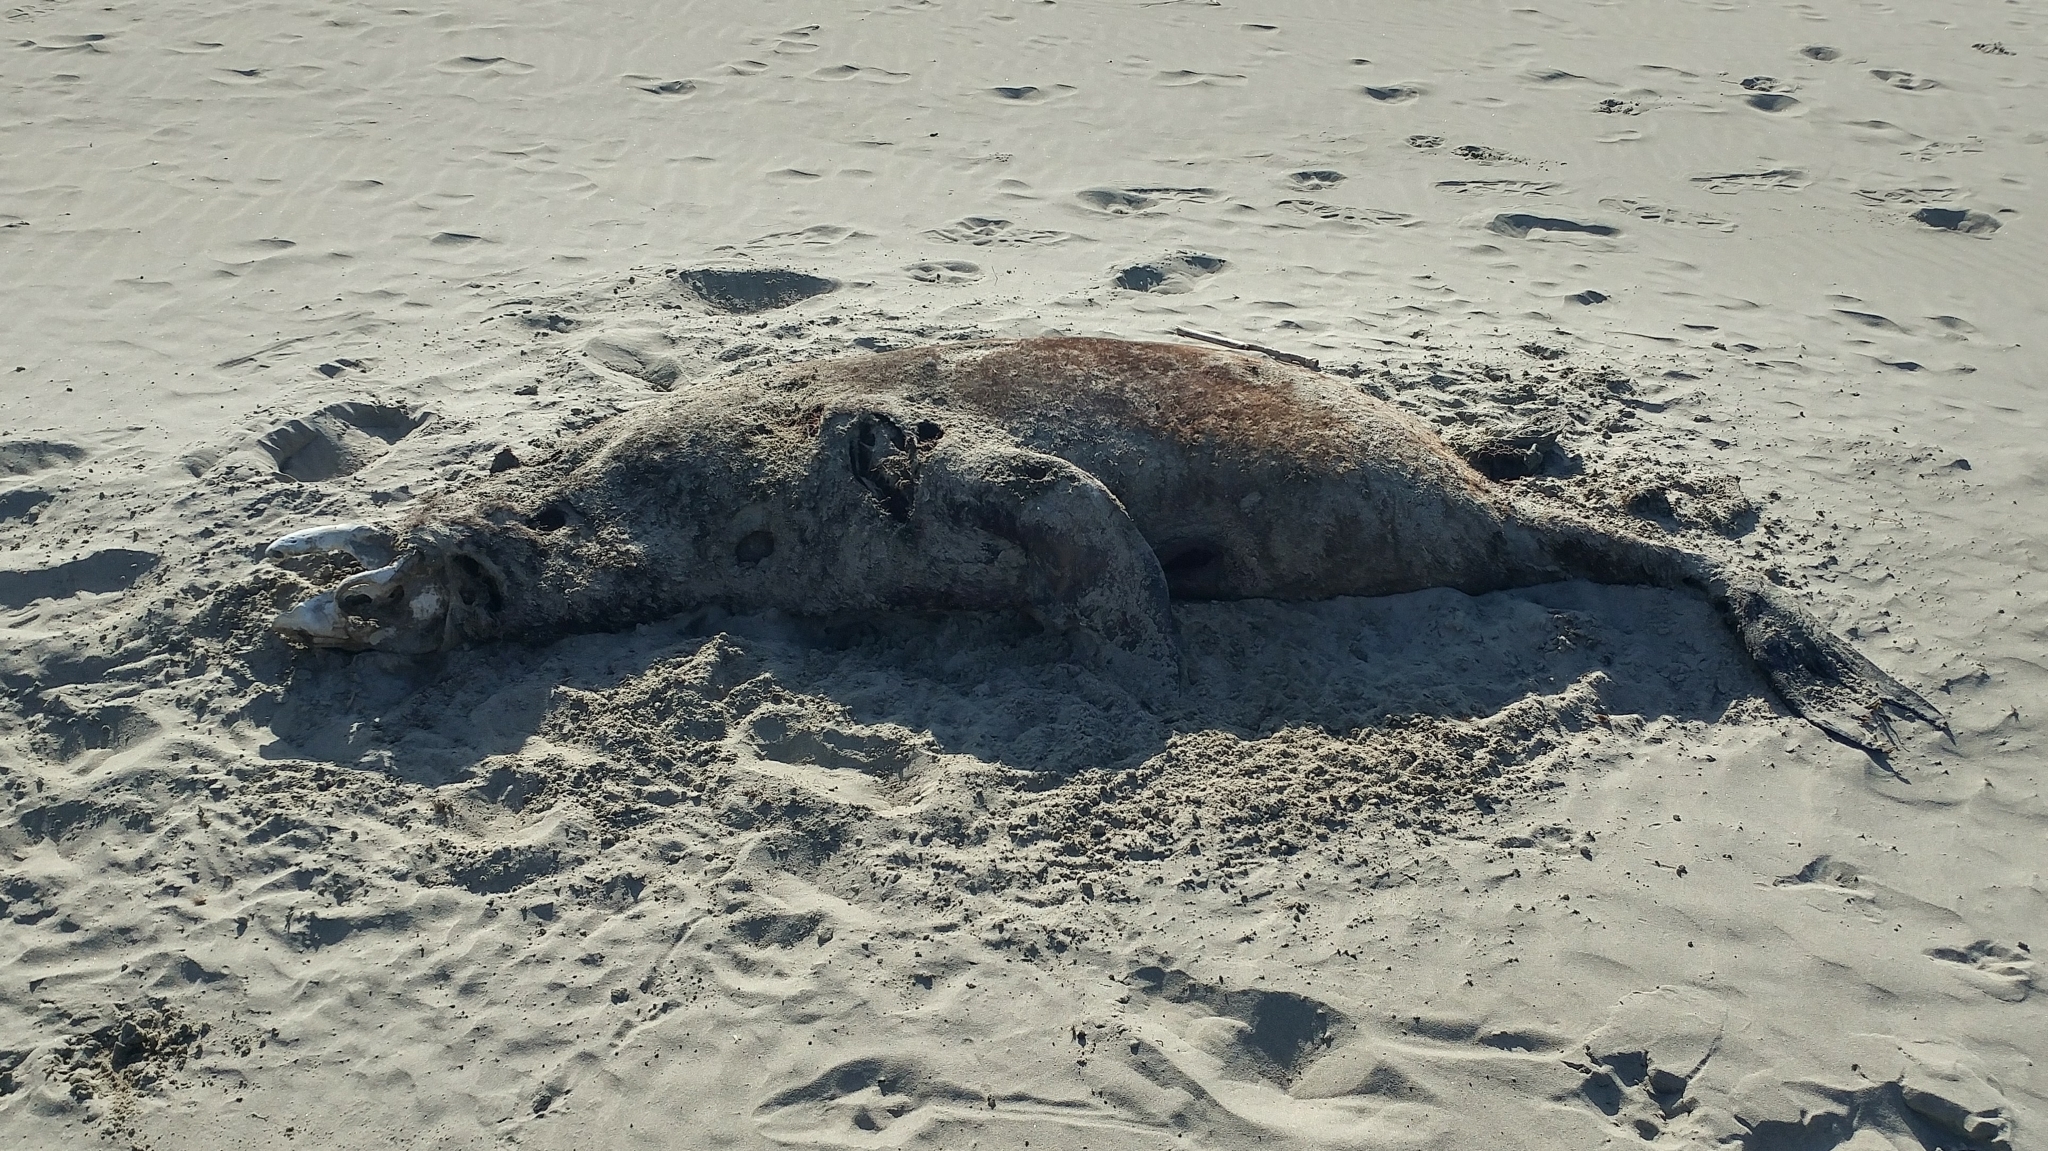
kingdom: Animalia
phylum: Chordata
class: Mammalia
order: Carnivora
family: Otariidae
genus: Zalophus
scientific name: Zalophus californianus
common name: California sea lion
